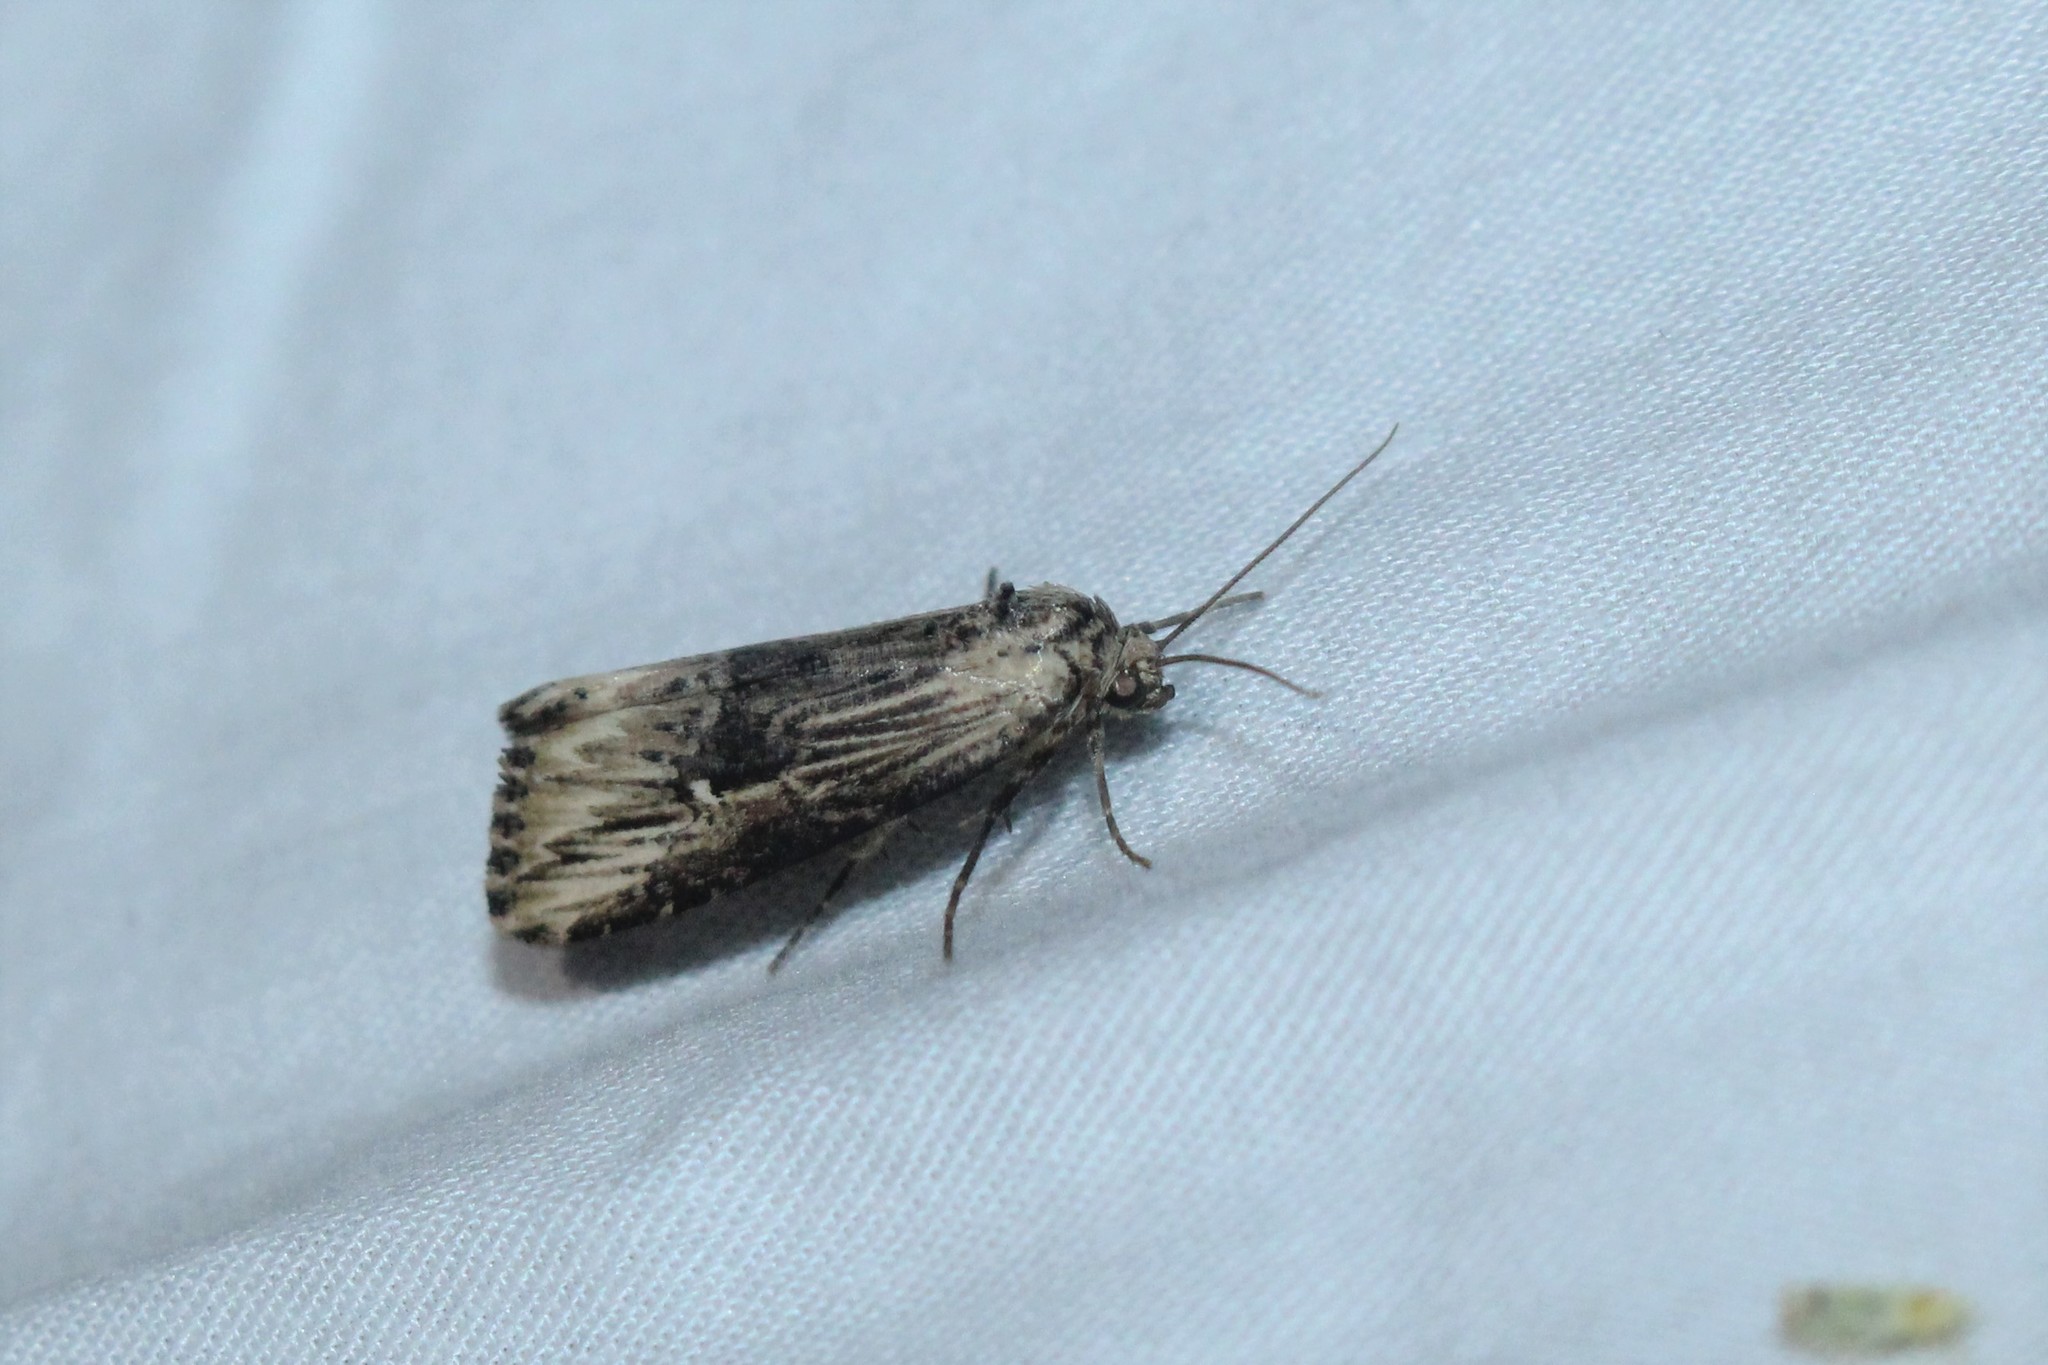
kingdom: Animalia
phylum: Arthropoda
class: Insecta
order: Lepidoptera
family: Noctuidae
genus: Crambodes
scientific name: Crambodes talidiformis
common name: Verbena moth
